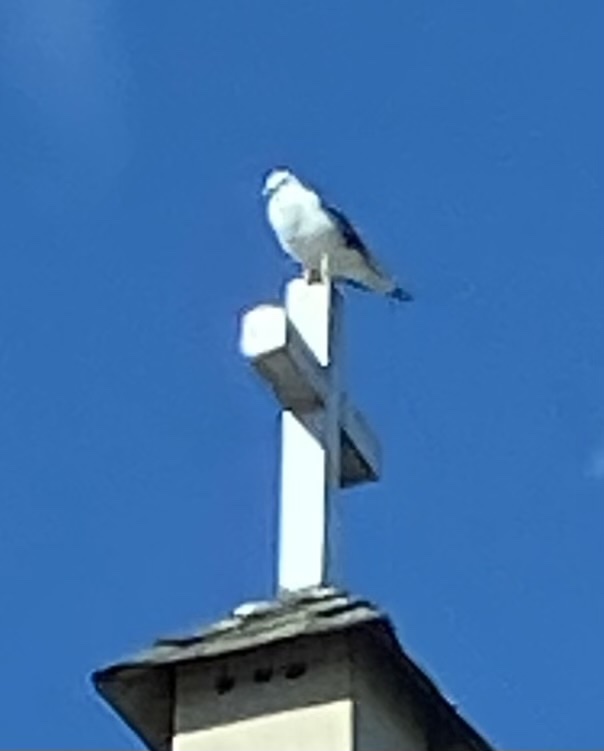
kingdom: Animalia
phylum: Chordata
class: Aves
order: Charadriiformes
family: Laridae
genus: Larus
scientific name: Larus occidentalis
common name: Western gull
